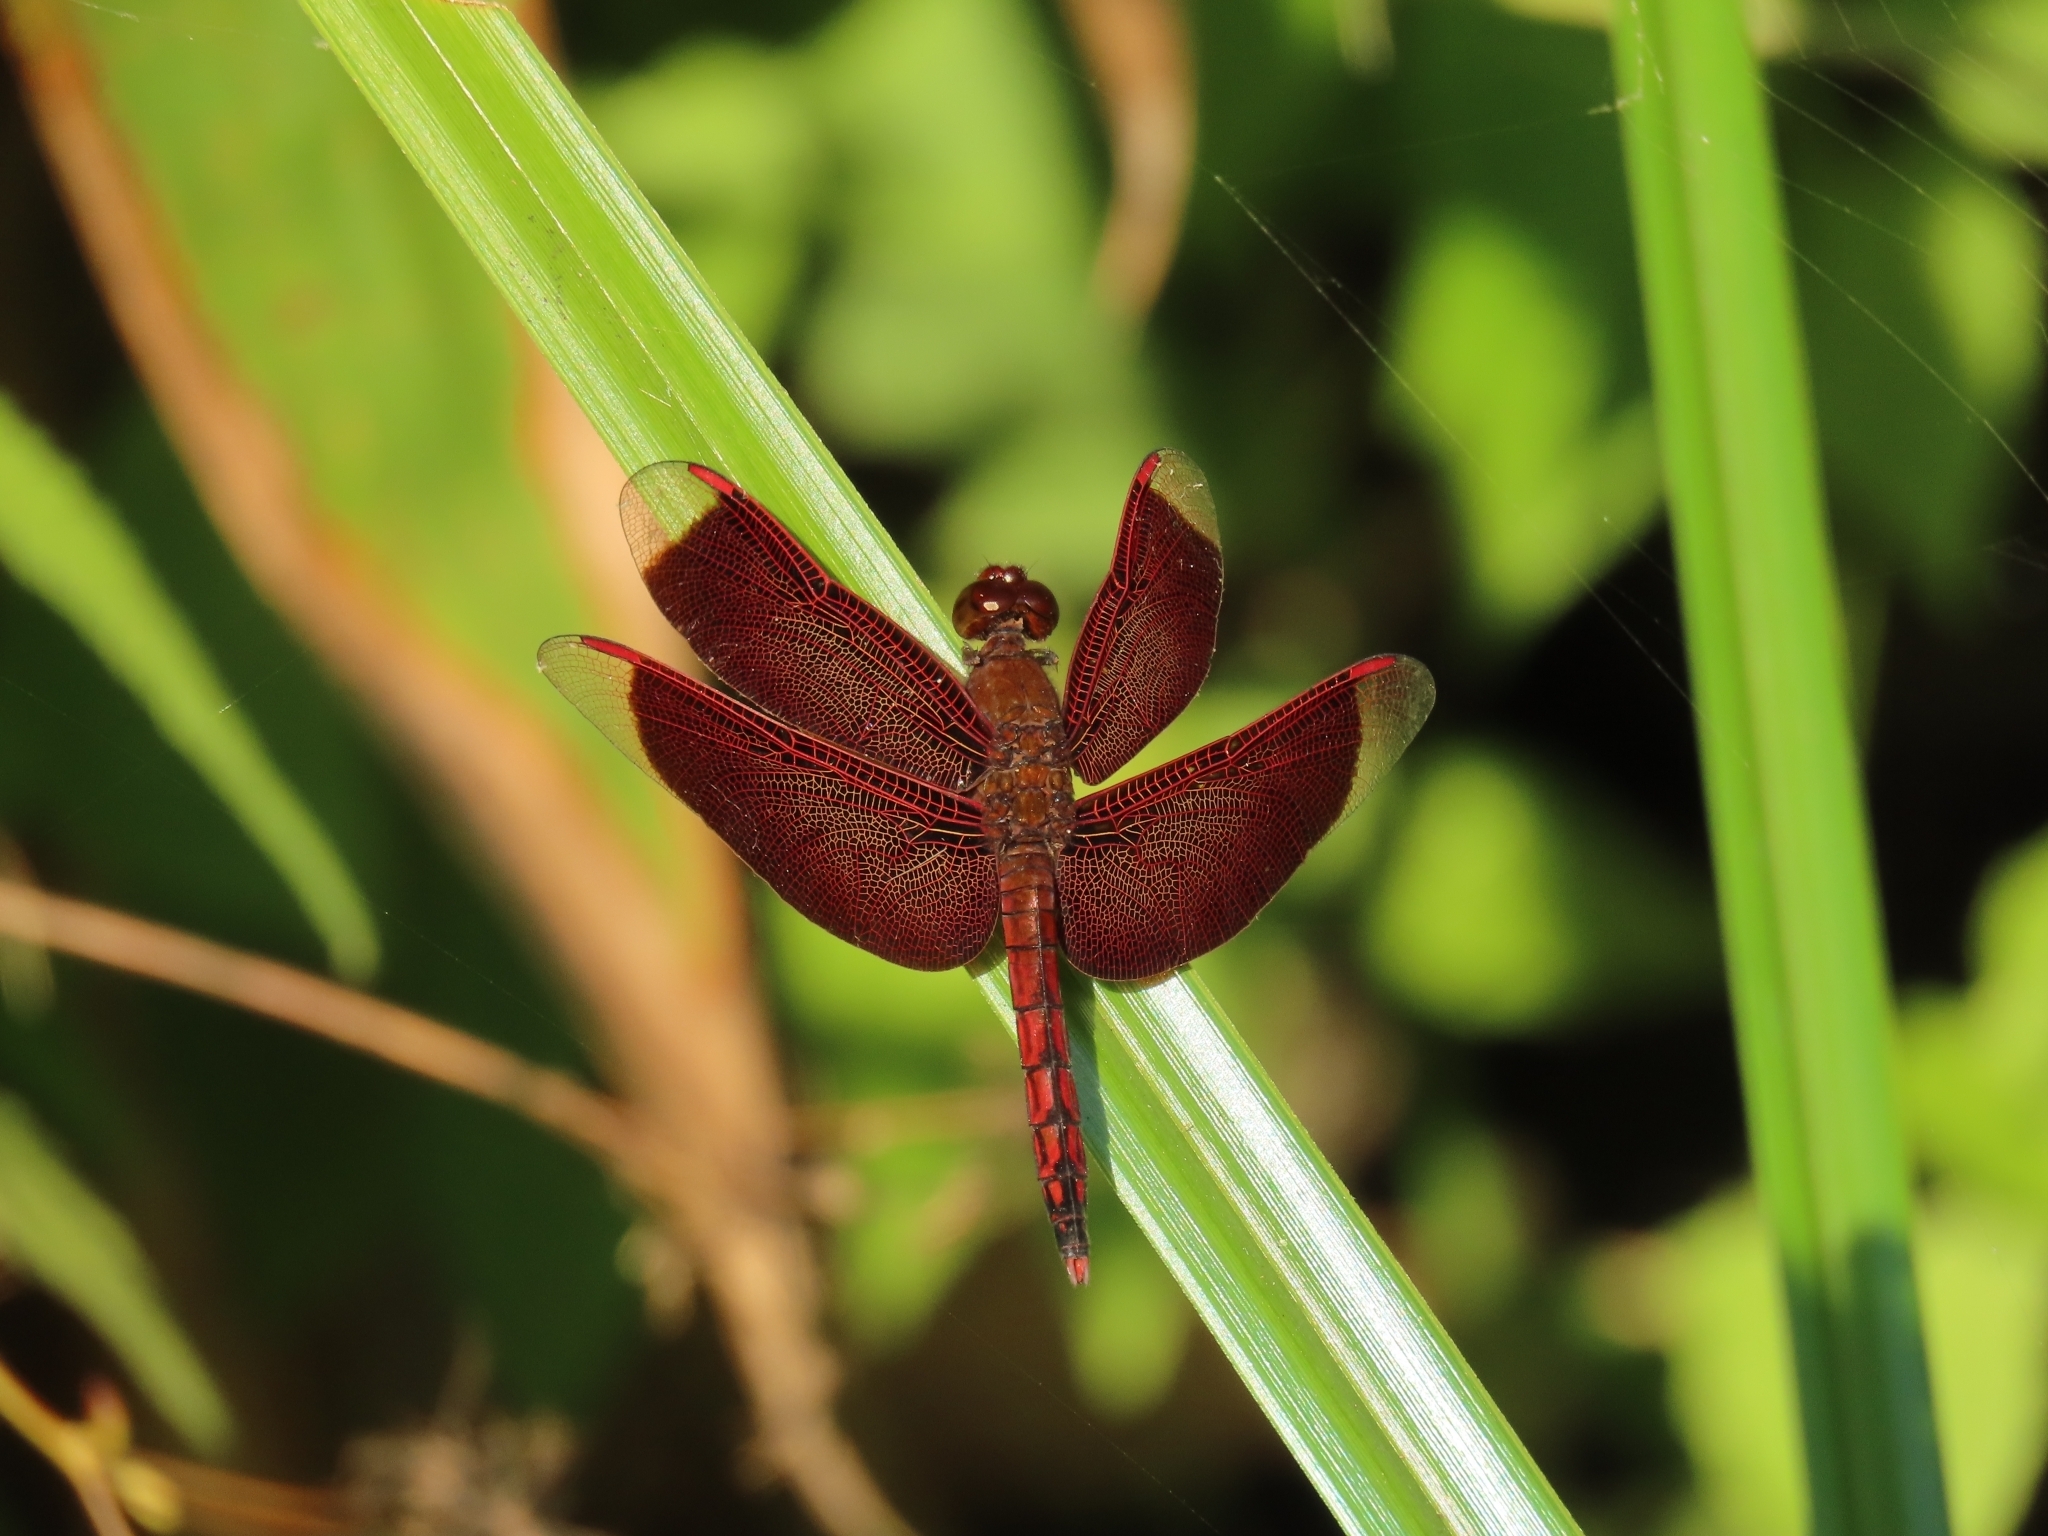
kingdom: Animalia
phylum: Arthropoda
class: Insecta
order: Odonata
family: Libellulidae
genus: Neurothemis
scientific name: Neurothemis taiwanensis
